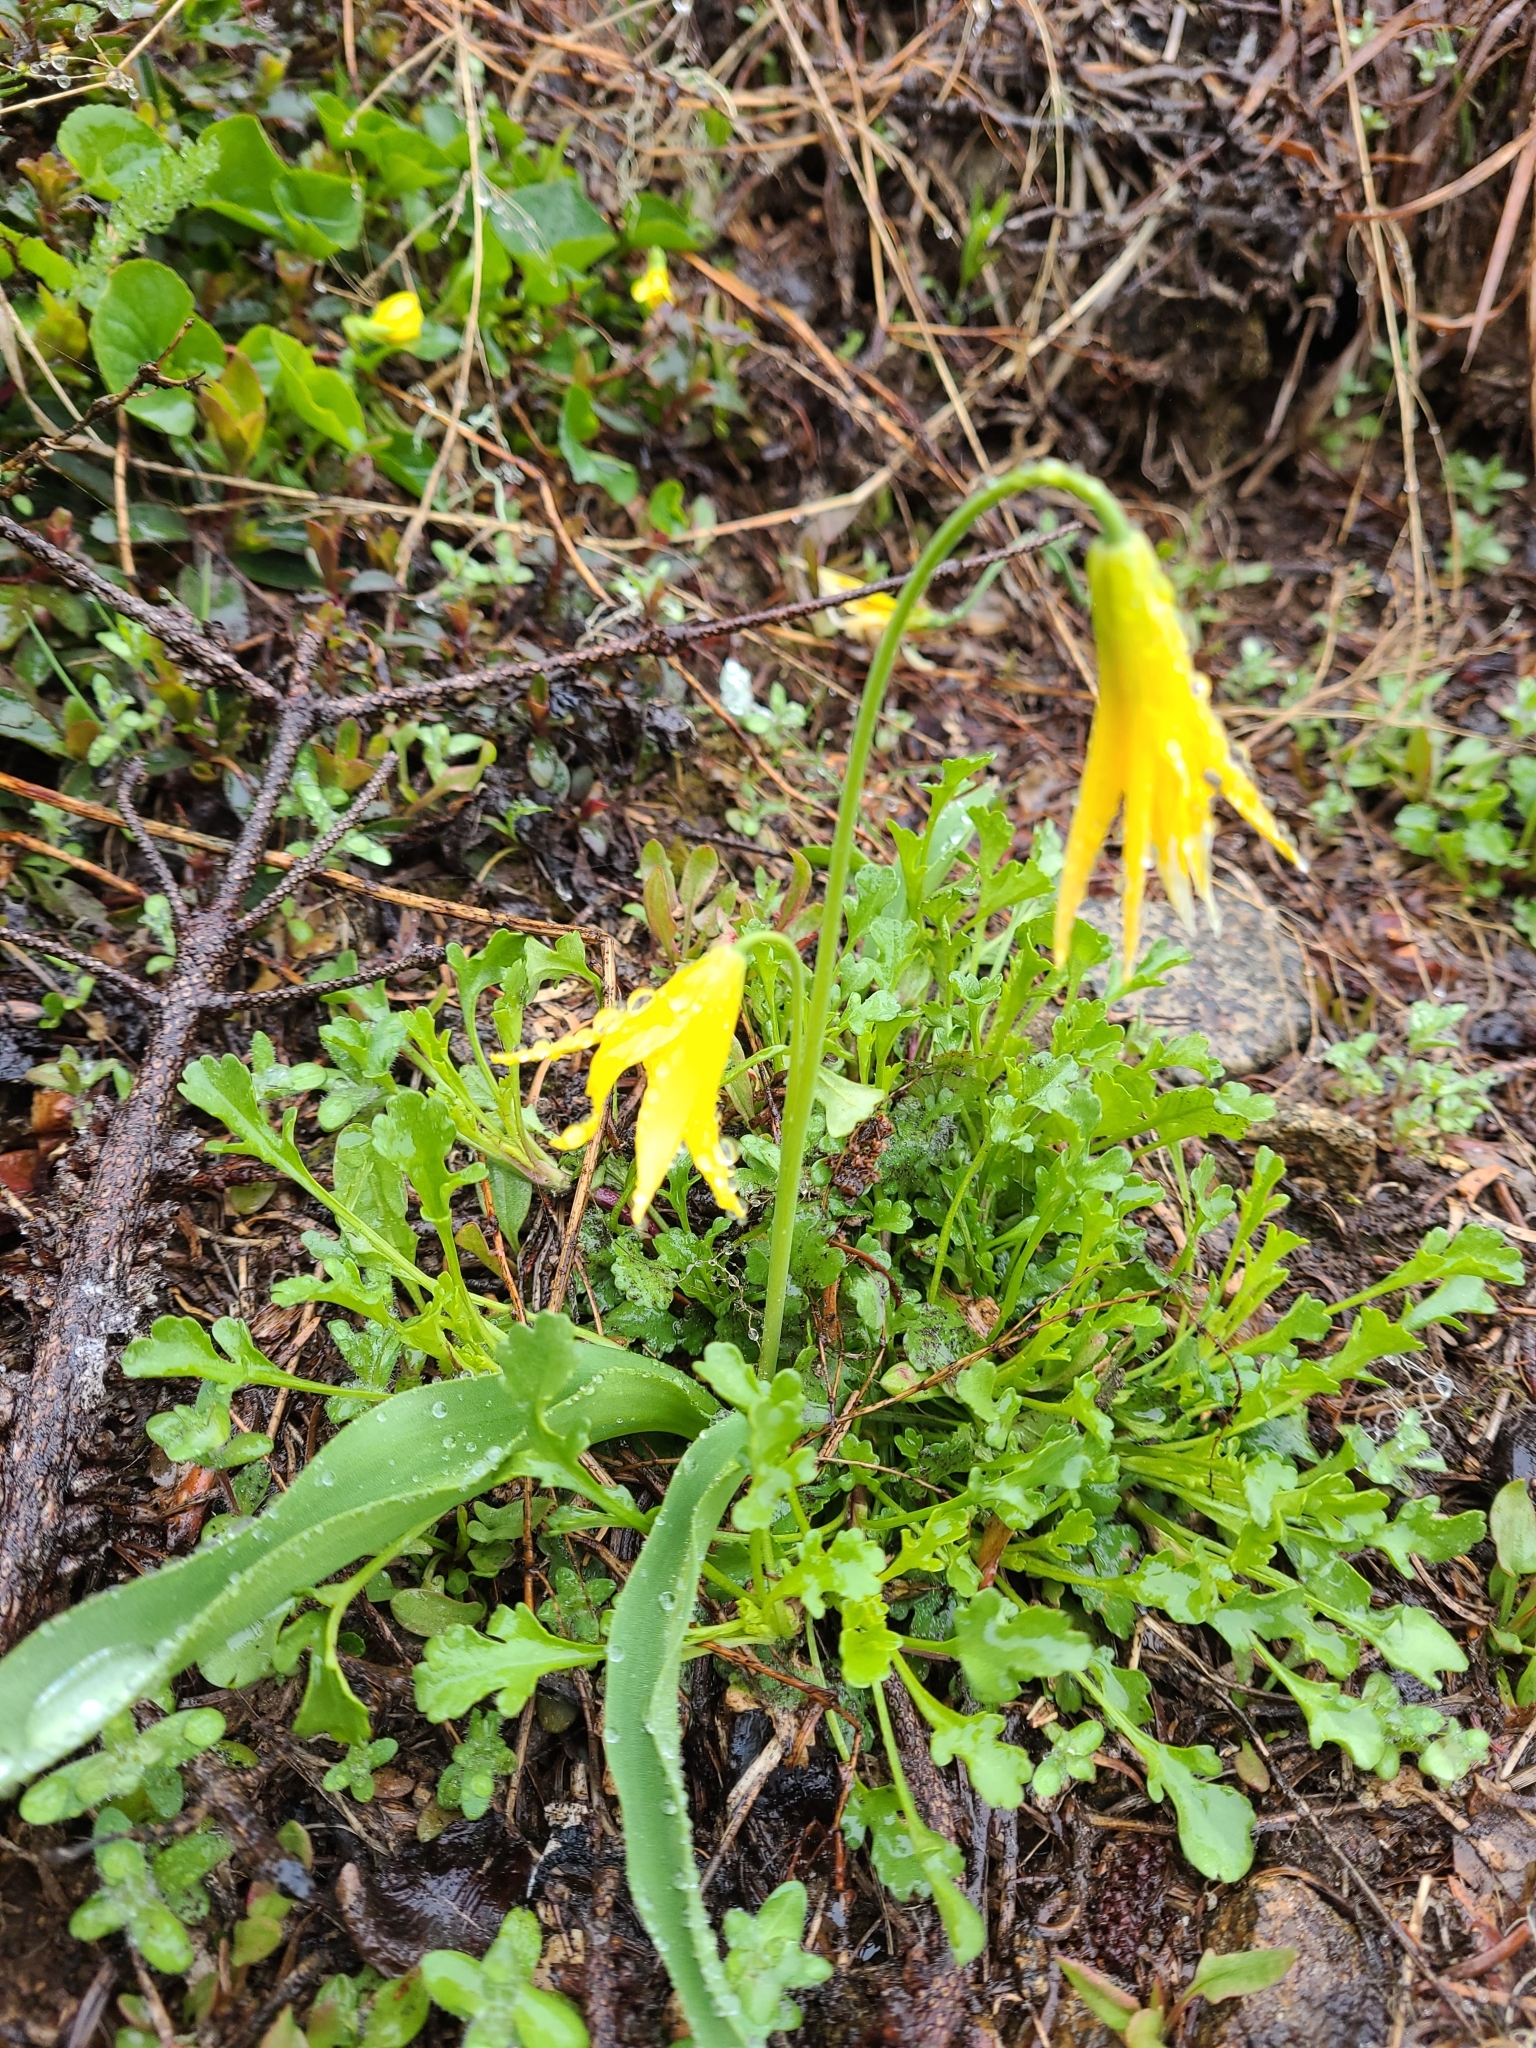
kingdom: Plantae
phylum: Tracheophyta
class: Liliopsida
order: Liliales
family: Liliaceae
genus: Erythronium
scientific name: Erythronium grandiflorum
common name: Avalanche-lily
